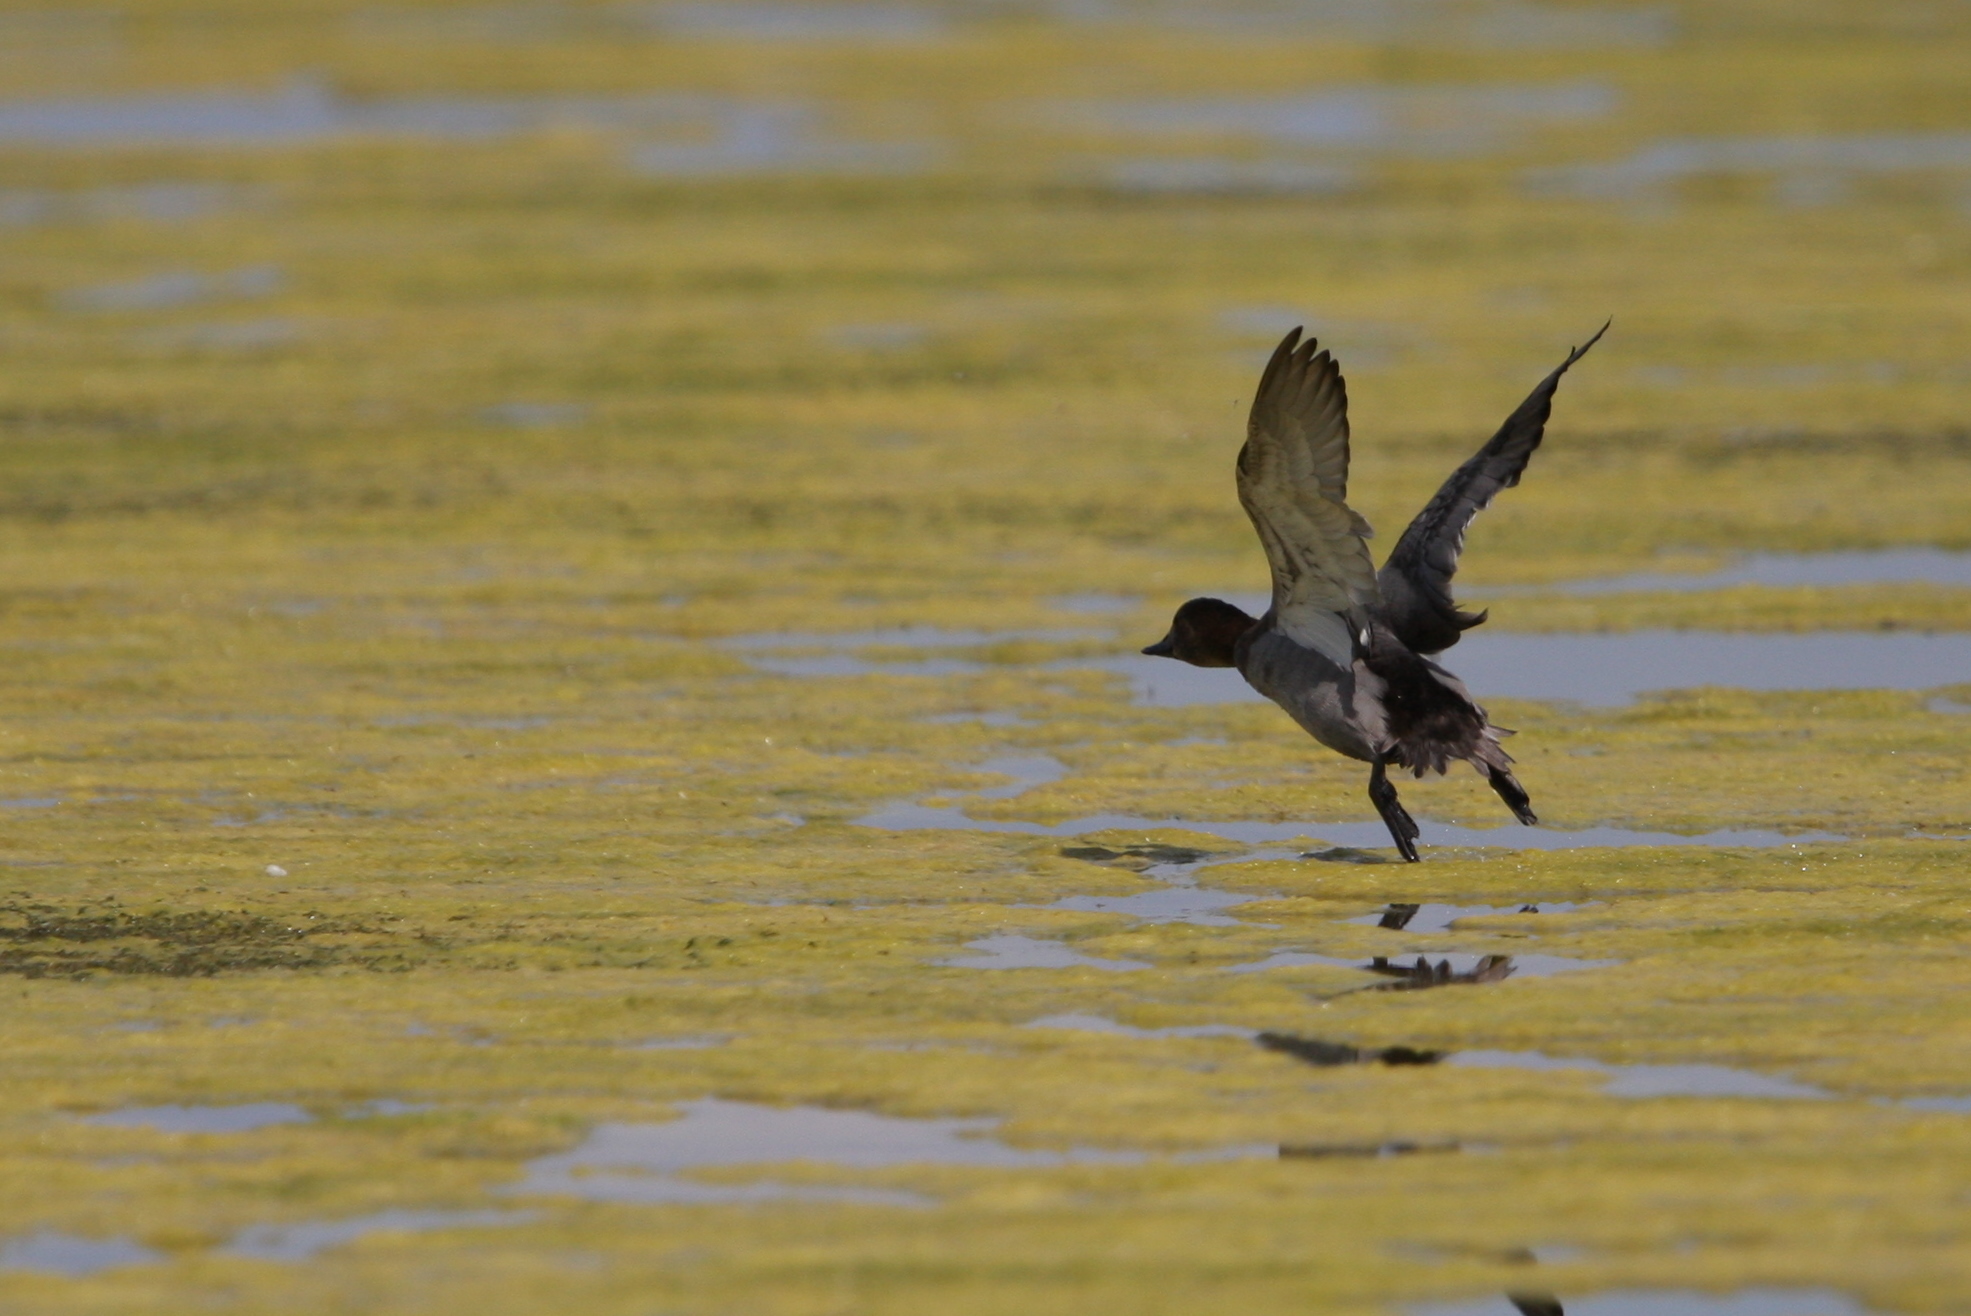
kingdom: Animalia
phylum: Chordata
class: Aves
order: Anseriformes
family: Anatidae
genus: Aythya
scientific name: Aythya ferina
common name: Common pochard
